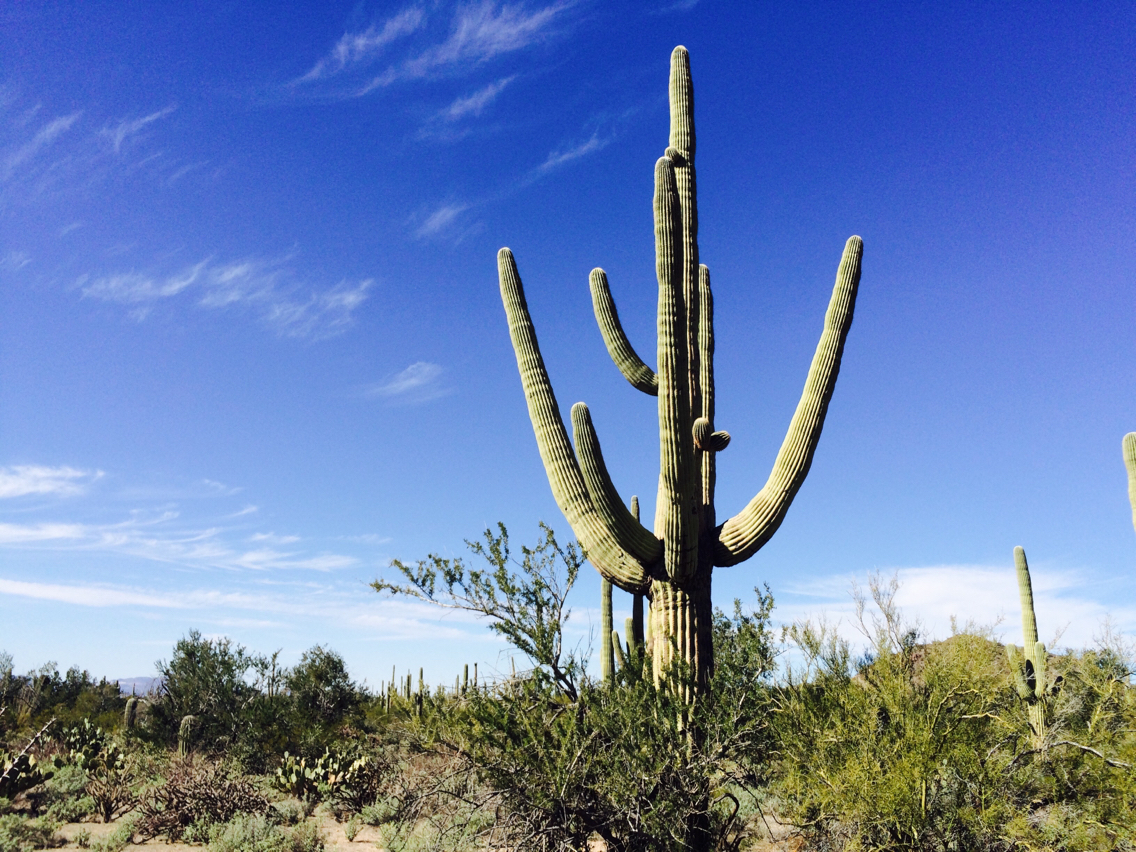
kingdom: Plantae
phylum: Tracheophyta
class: Magnoliopsida
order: Caryophyllales
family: Cactaceae
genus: Carnegiea
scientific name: Carnegiea gigantea
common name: Saguaro
